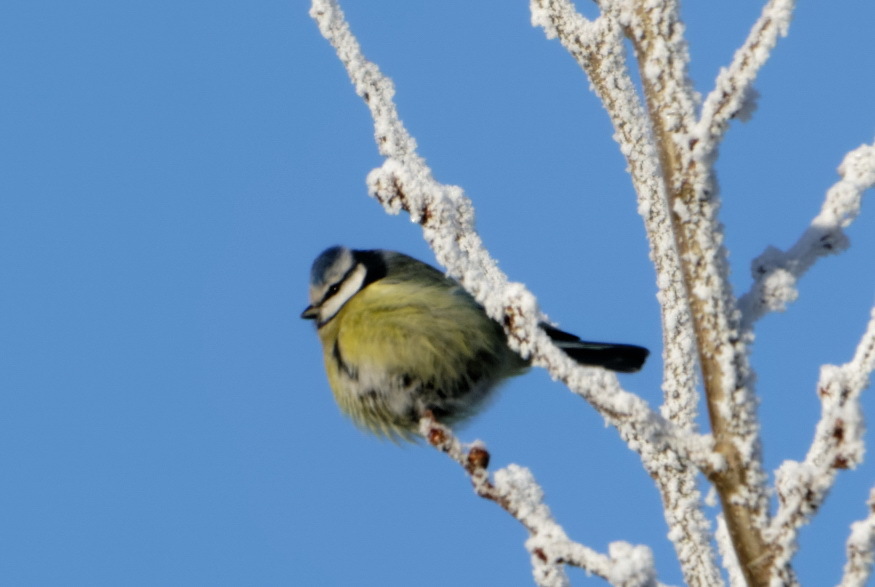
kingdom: Animalia
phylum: Chordata
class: Aves
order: Passeriformes
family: Paridae
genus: Cyanistes
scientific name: Cyanistes caeruleus
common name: Eurasian blue tit
